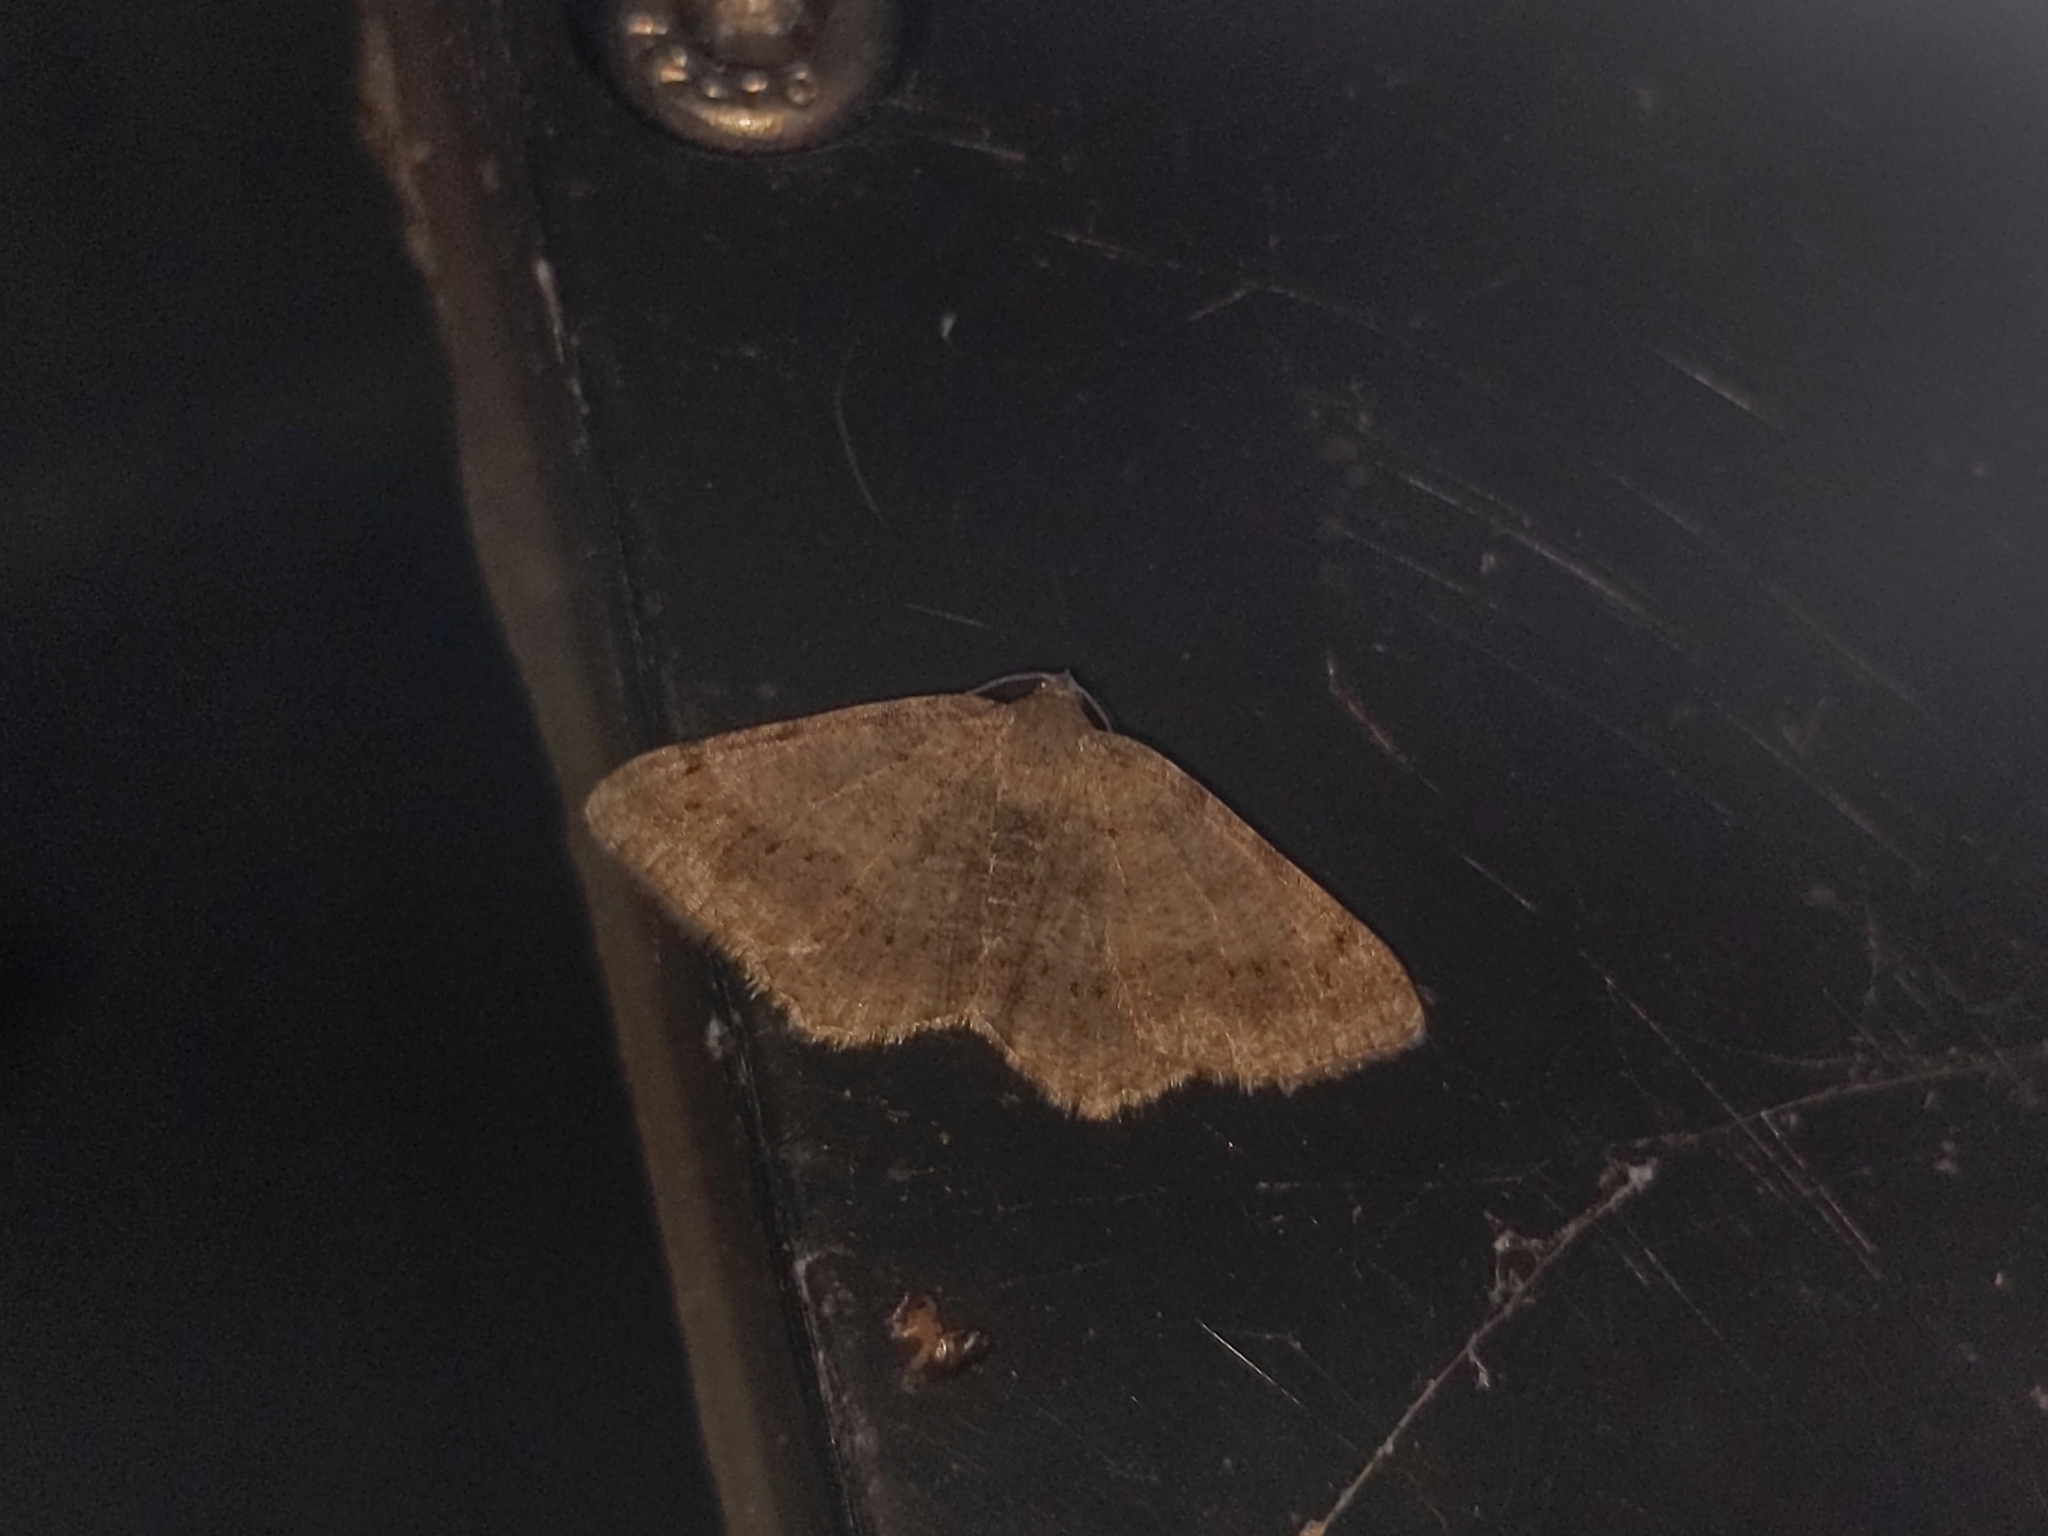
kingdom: Animalia
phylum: Arthropoda
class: Insecta
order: Lepidoptera
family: Geometridae
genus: Digrammia
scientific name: Digrammia ocellinata
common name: Faint-spotted angle
